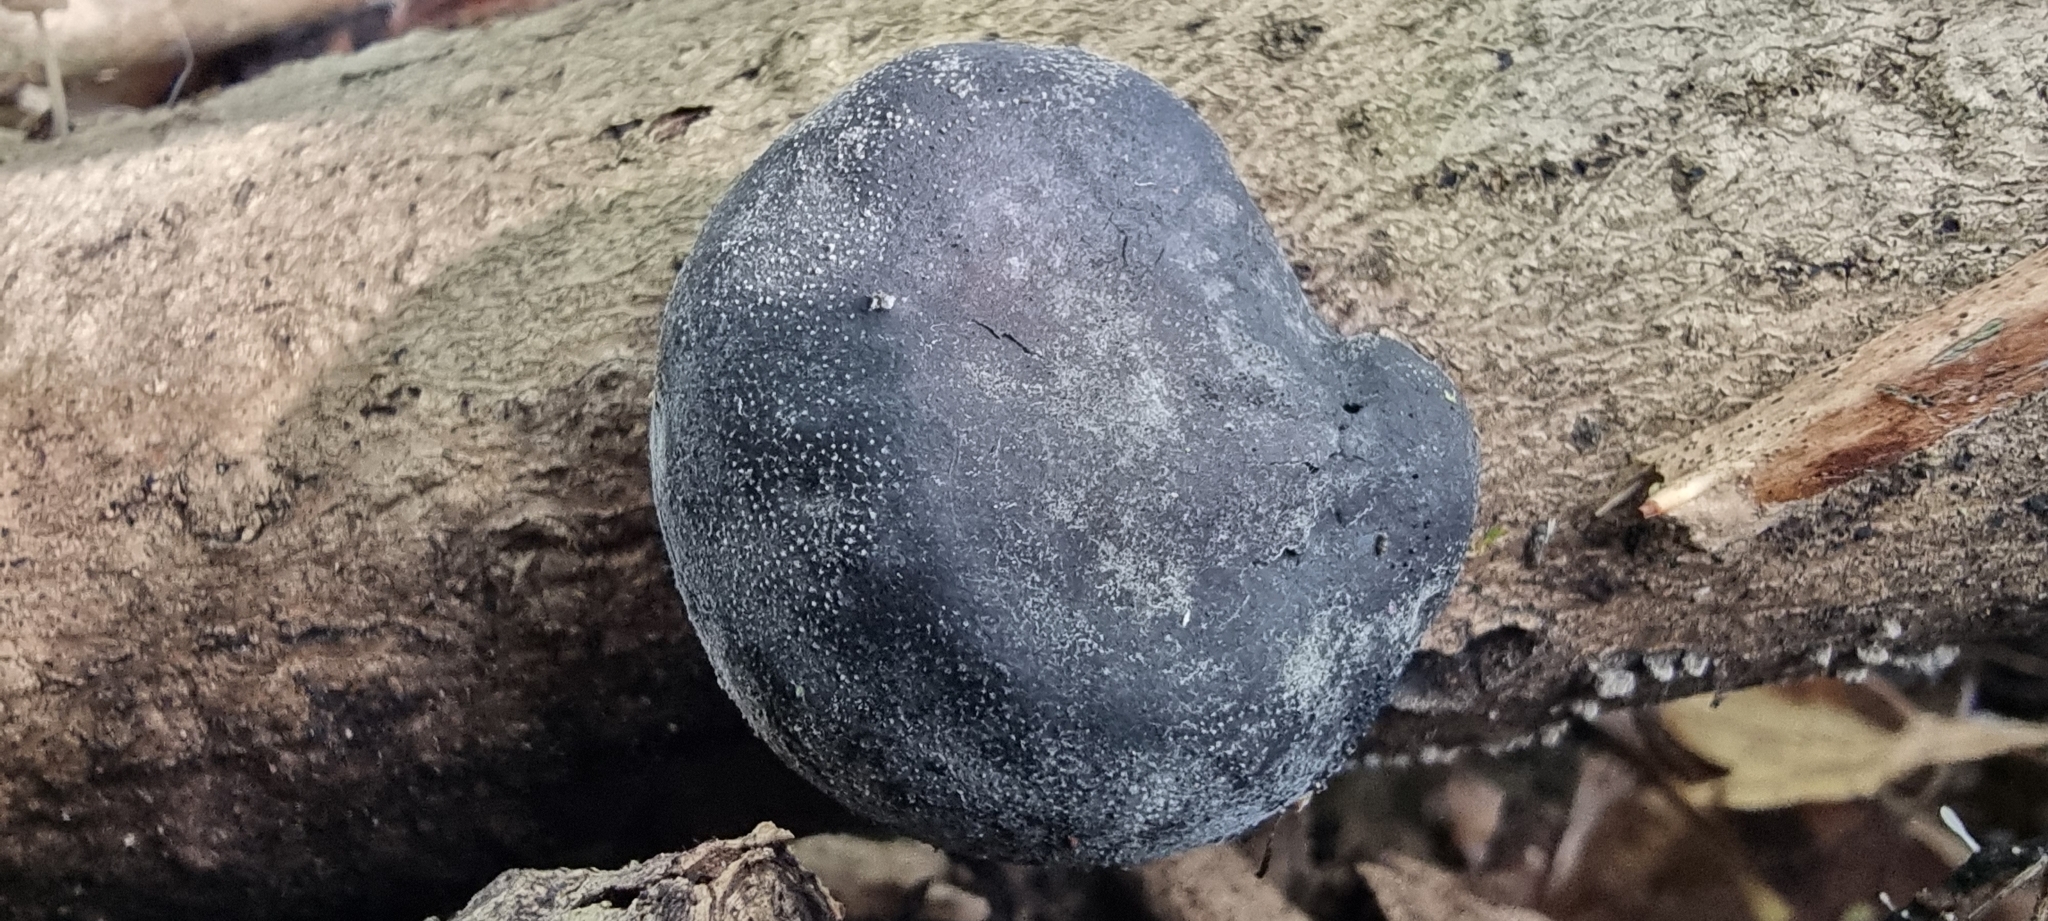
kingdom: Fungi
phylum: Ascomycota
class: Sordariomycetes
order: Xylariales
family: Hypoxylaceae
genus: Daldinia
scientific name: Daldinia concentrica
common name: Cramp balls
